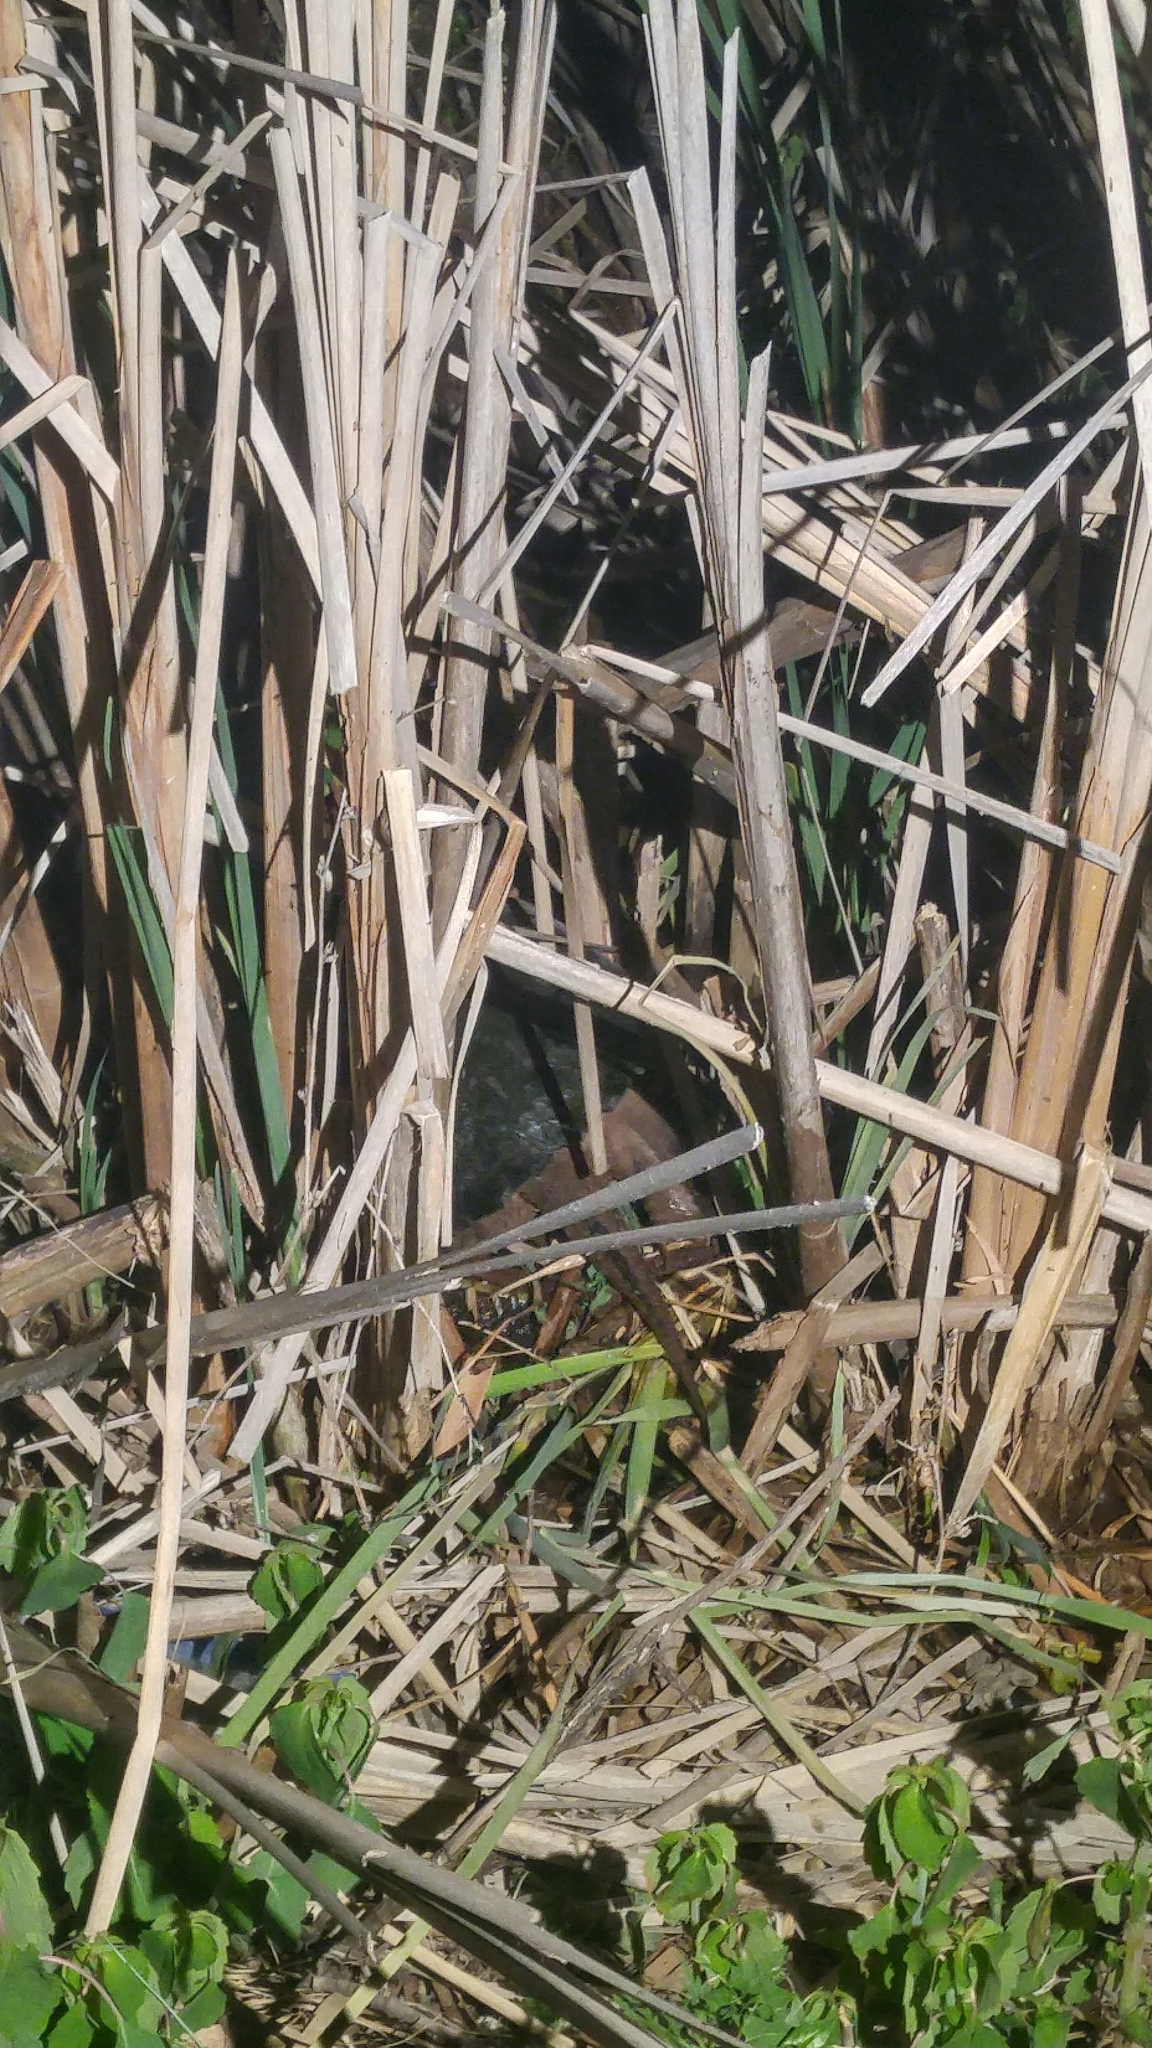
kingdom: Animalia
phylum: Chordata
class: Testudines
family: Chelydridae
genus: Chelydra
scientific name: Chelydra serpentina
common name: Common snapping turtle
